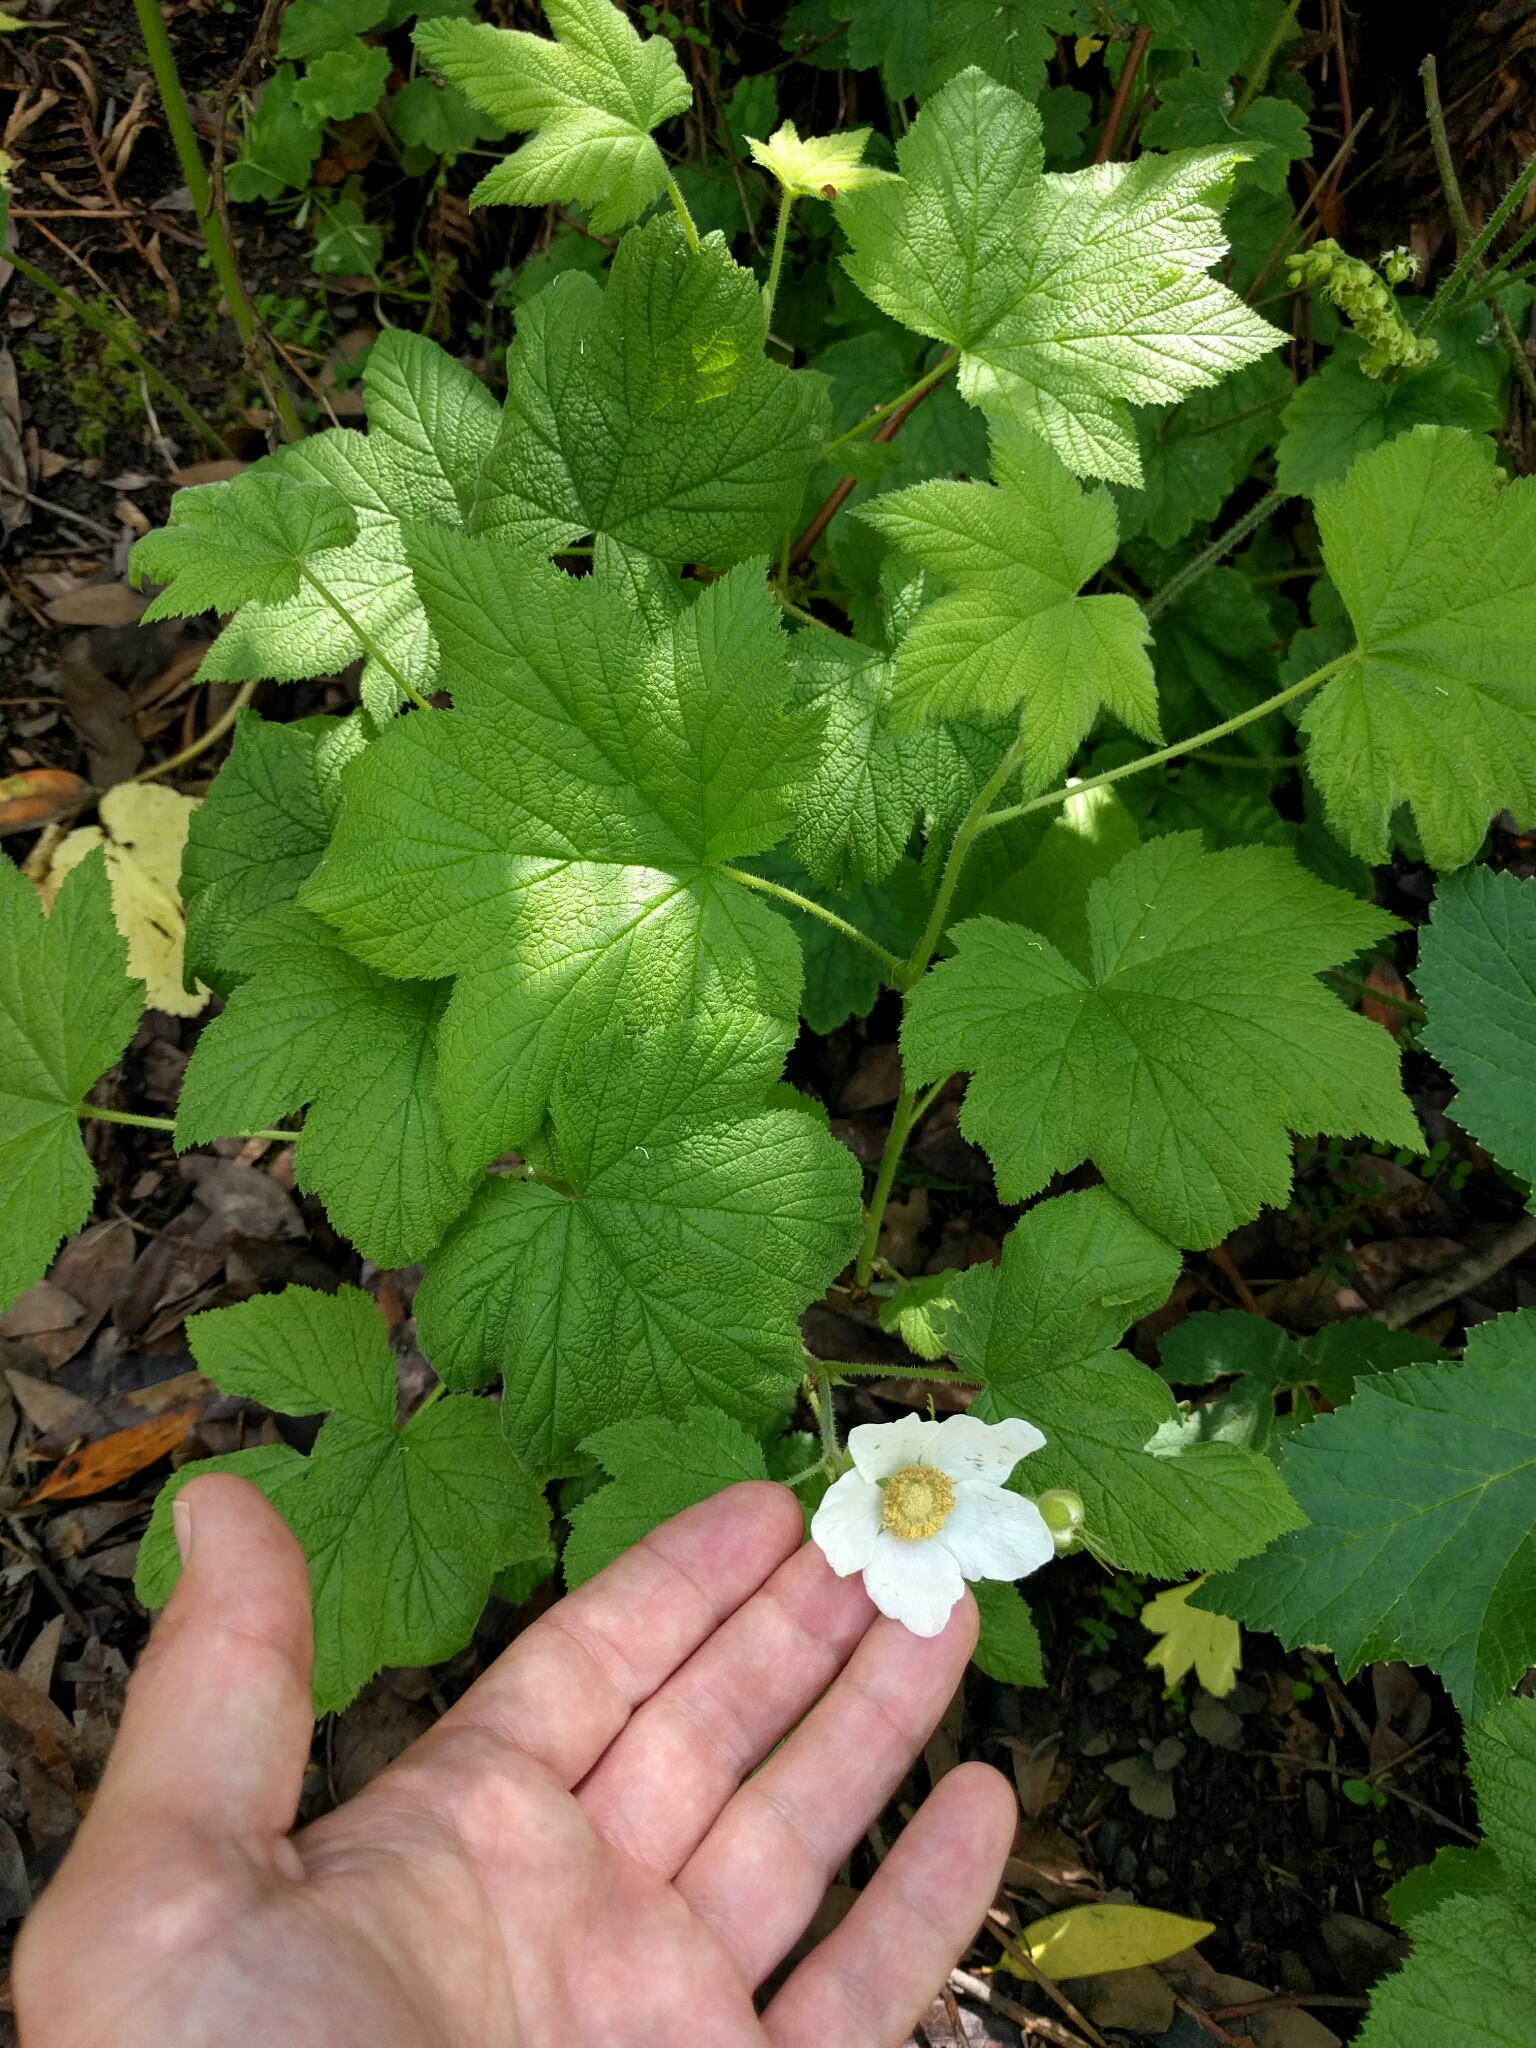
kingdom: Plantae
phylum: Tracheophyta
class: Magnoliopsida
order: Rosales
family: Rosaceae
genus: Rubus
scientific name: Rubus parviflorus
